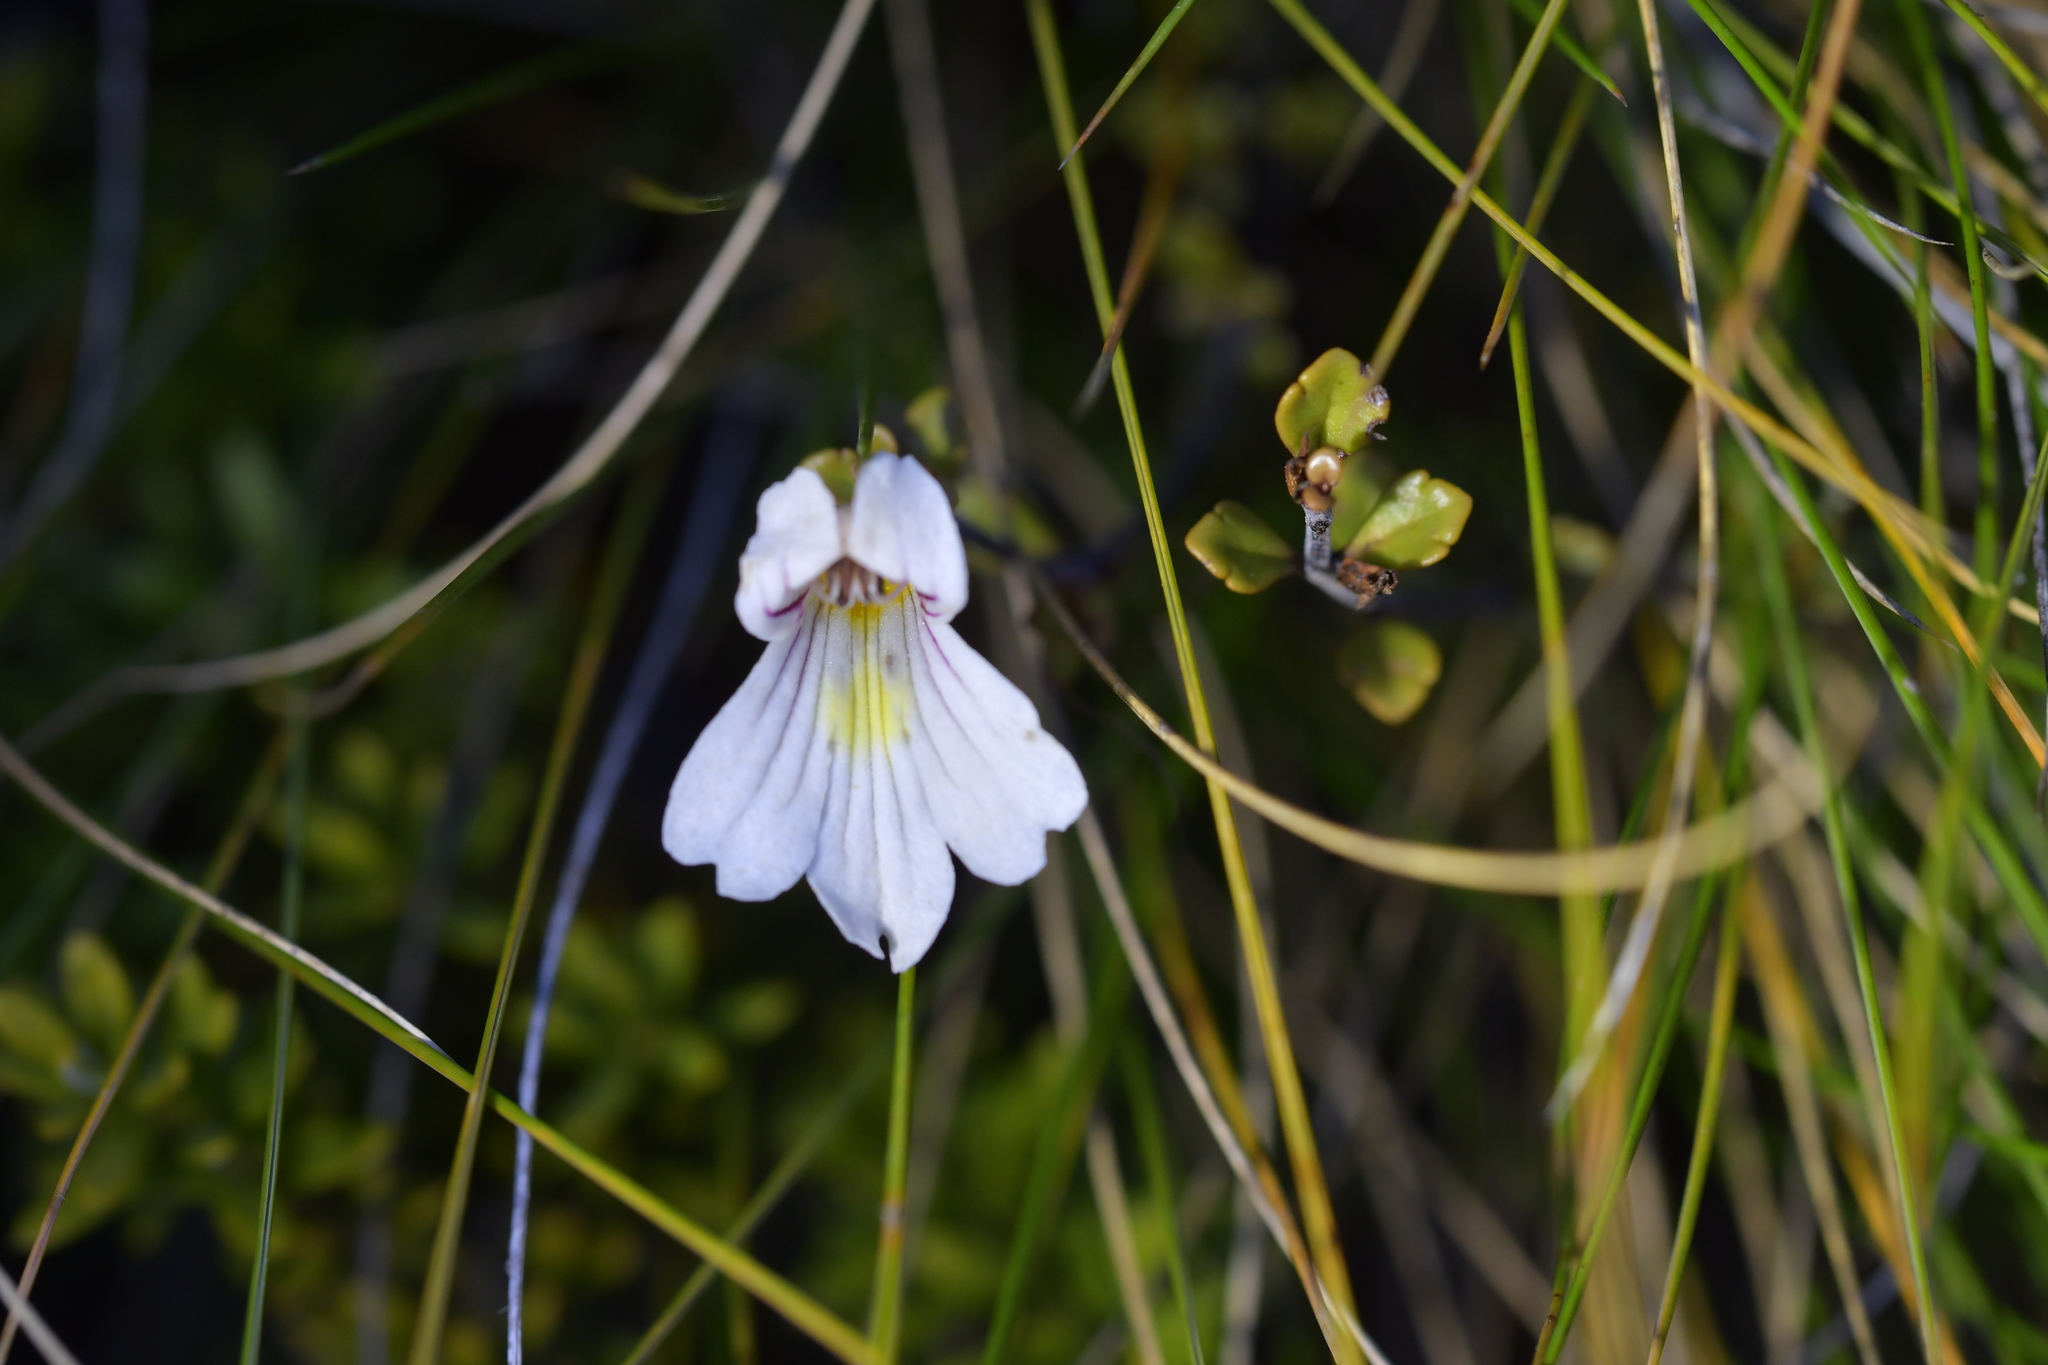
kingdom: Plantae
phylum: Tracheophyta
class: Magnoliopsida
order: Lamiales
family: Orobanchaceae
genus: Euphrasia
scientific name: Euphrasia cuneata
